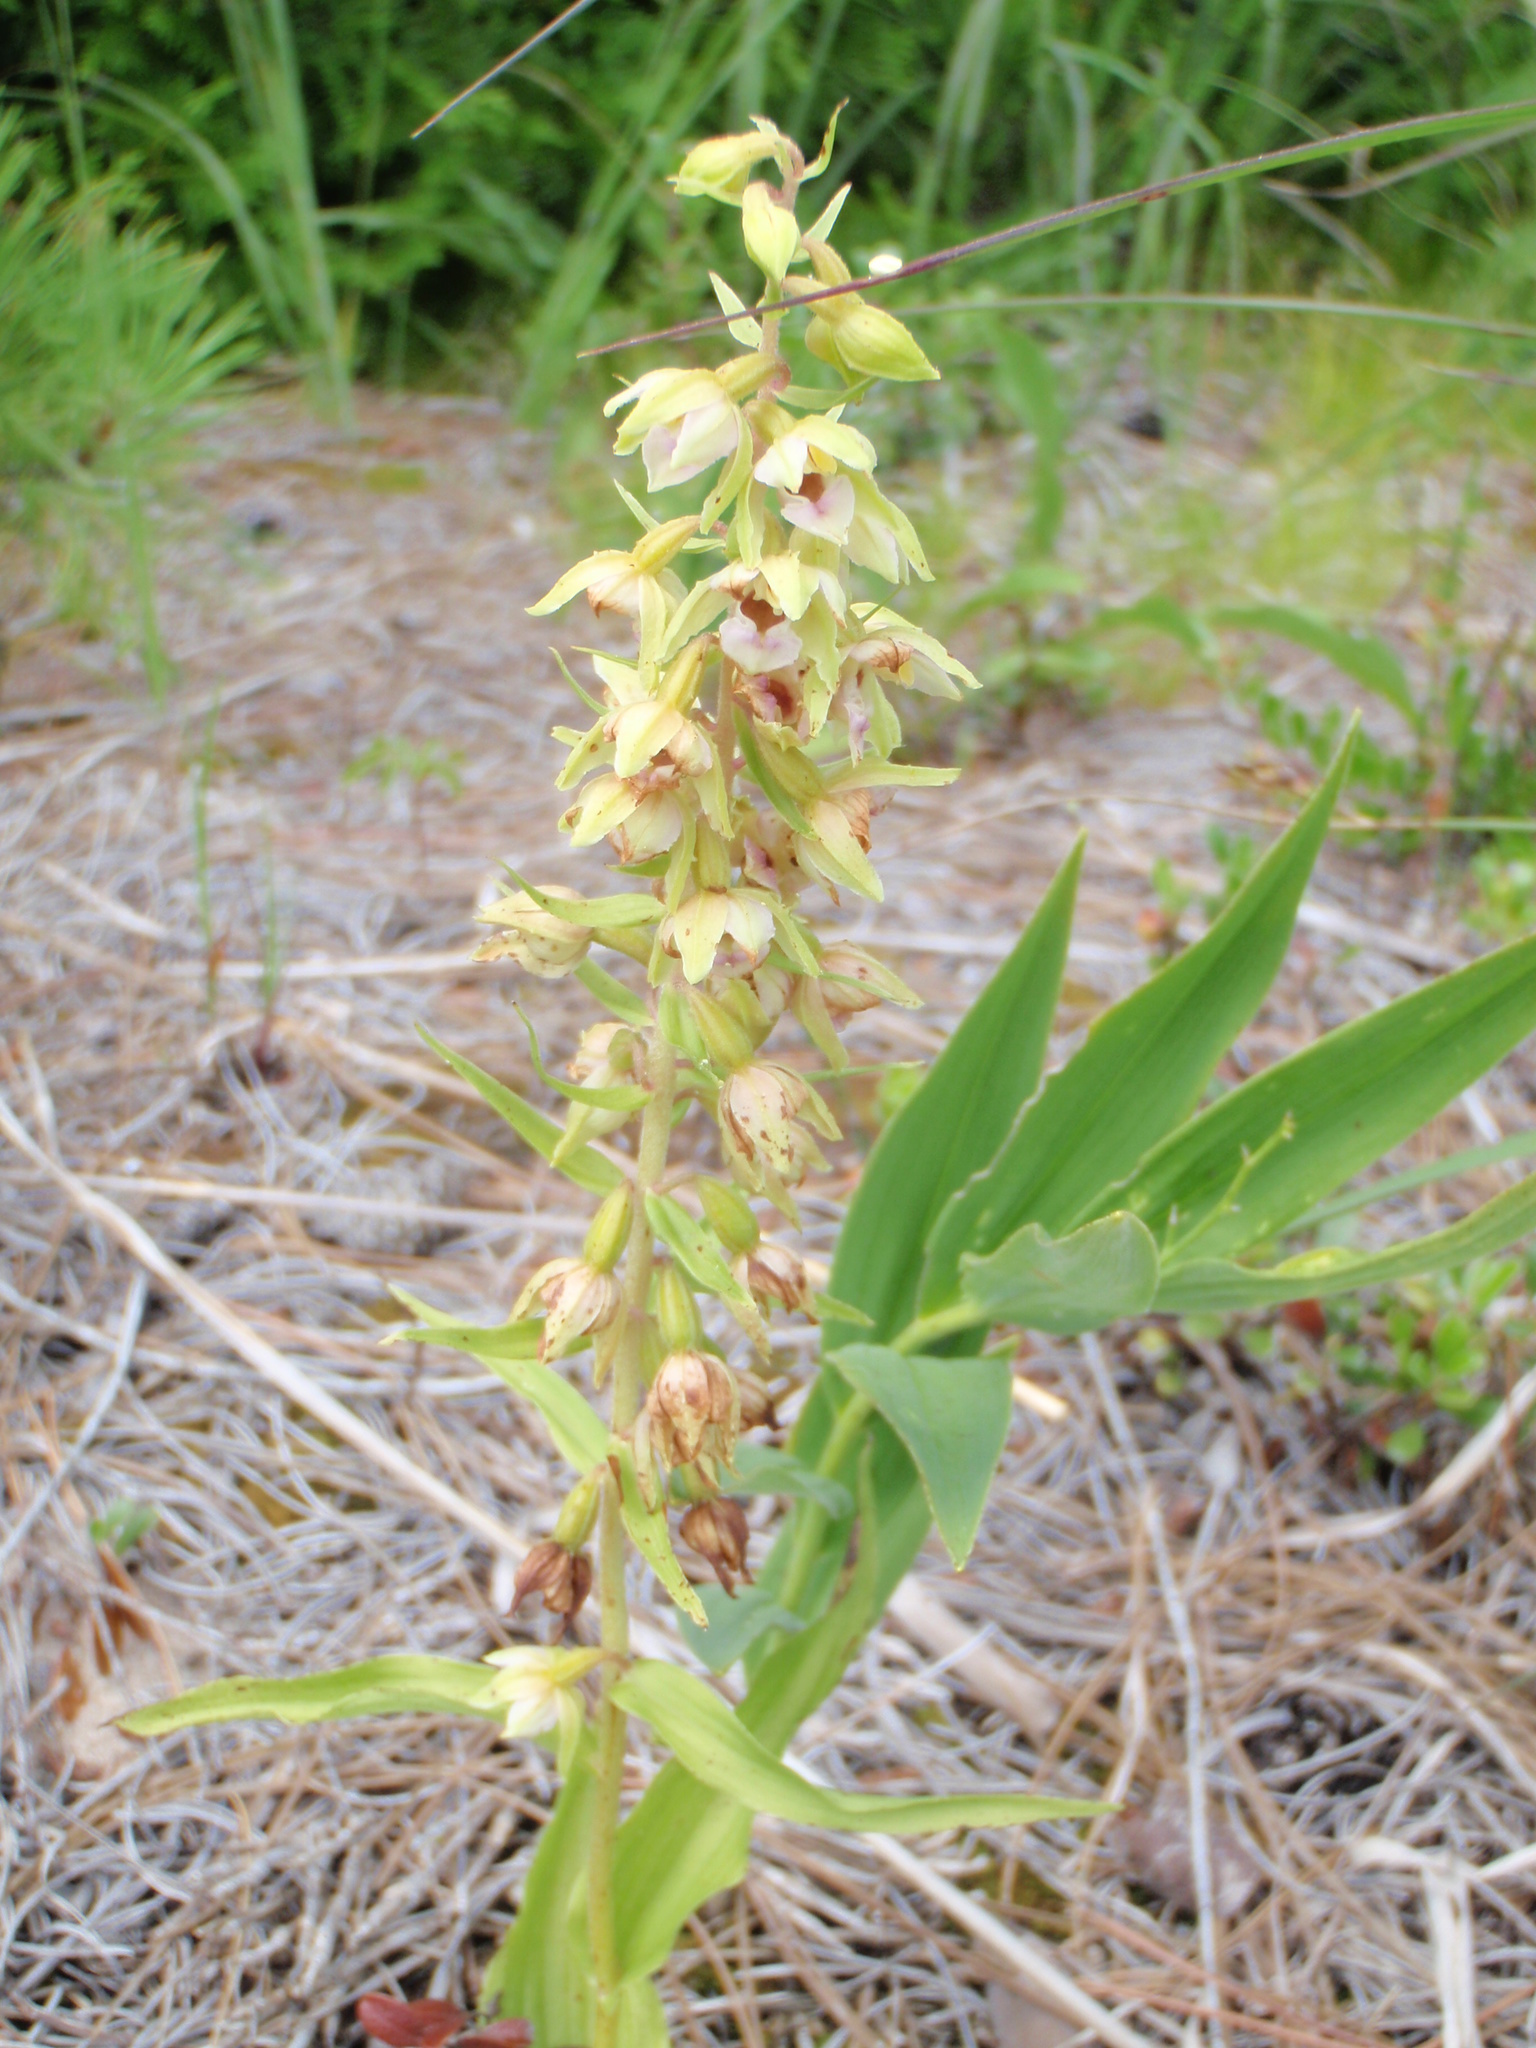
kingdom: Plantae
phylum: Tracheophyta
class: Liliopsida
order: Asparagales
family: Orchidaceae
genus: Epipactis
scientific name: Epipactis helleborine
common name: Broad-leaved helleborine
